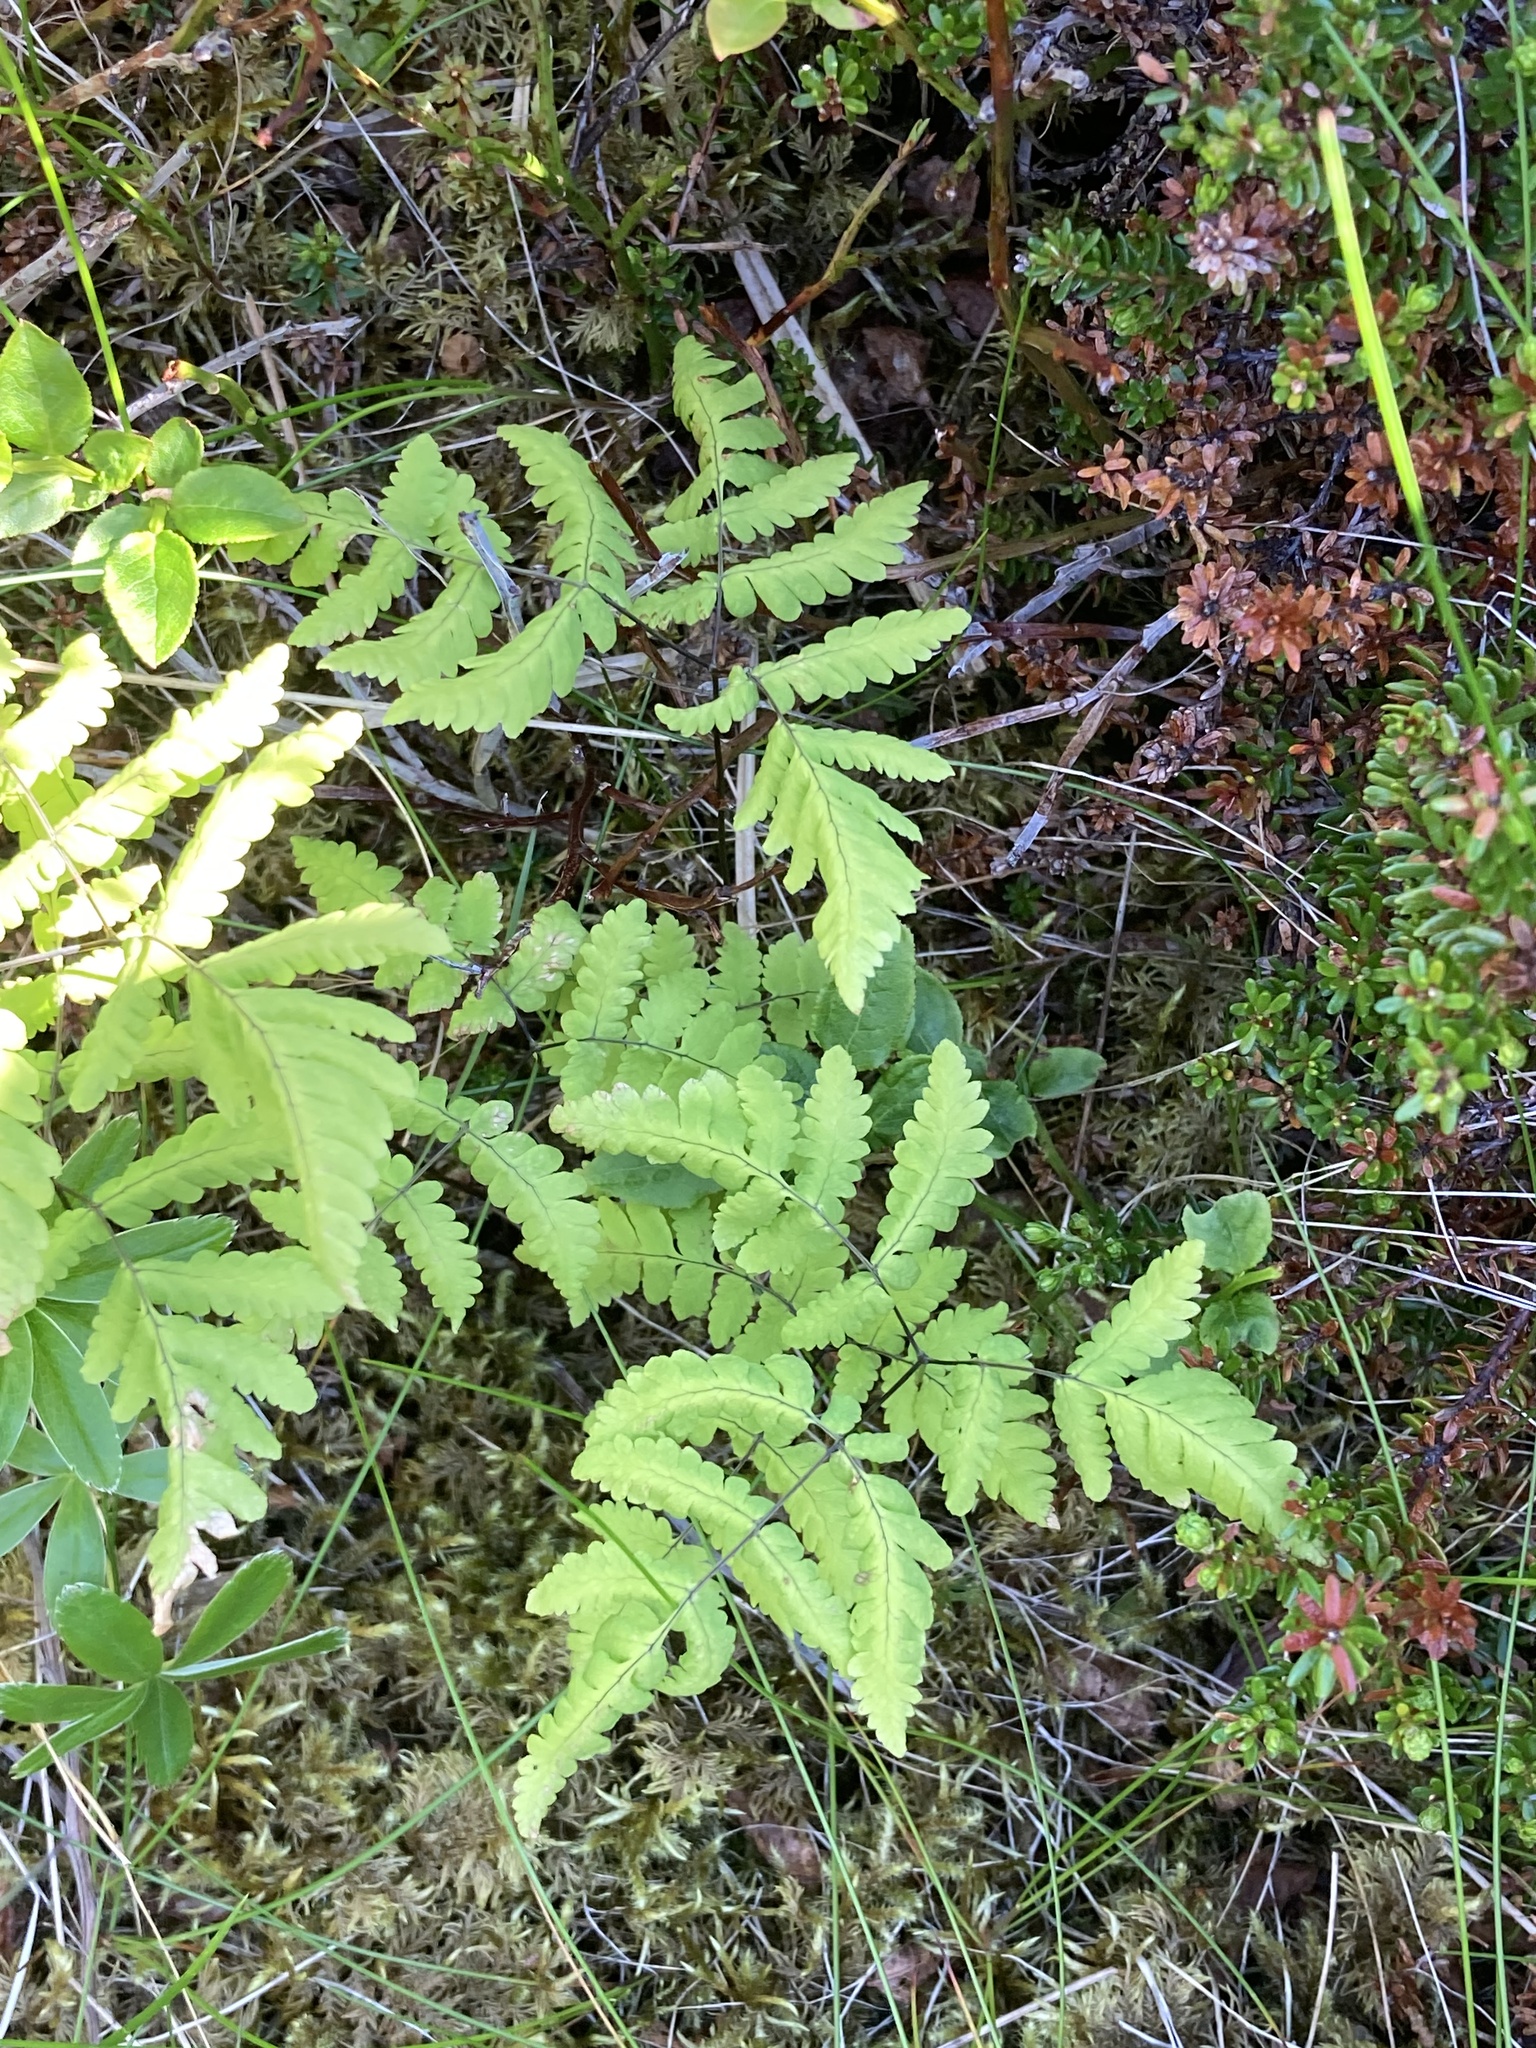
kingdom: Plantae
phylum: Tracheophyta
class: Polypodiopsida
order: Polypodiales
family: Cystopteridaceae
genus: Gymnocarpium
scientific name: Gymnocarpium dryopteris
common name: Oak fern
